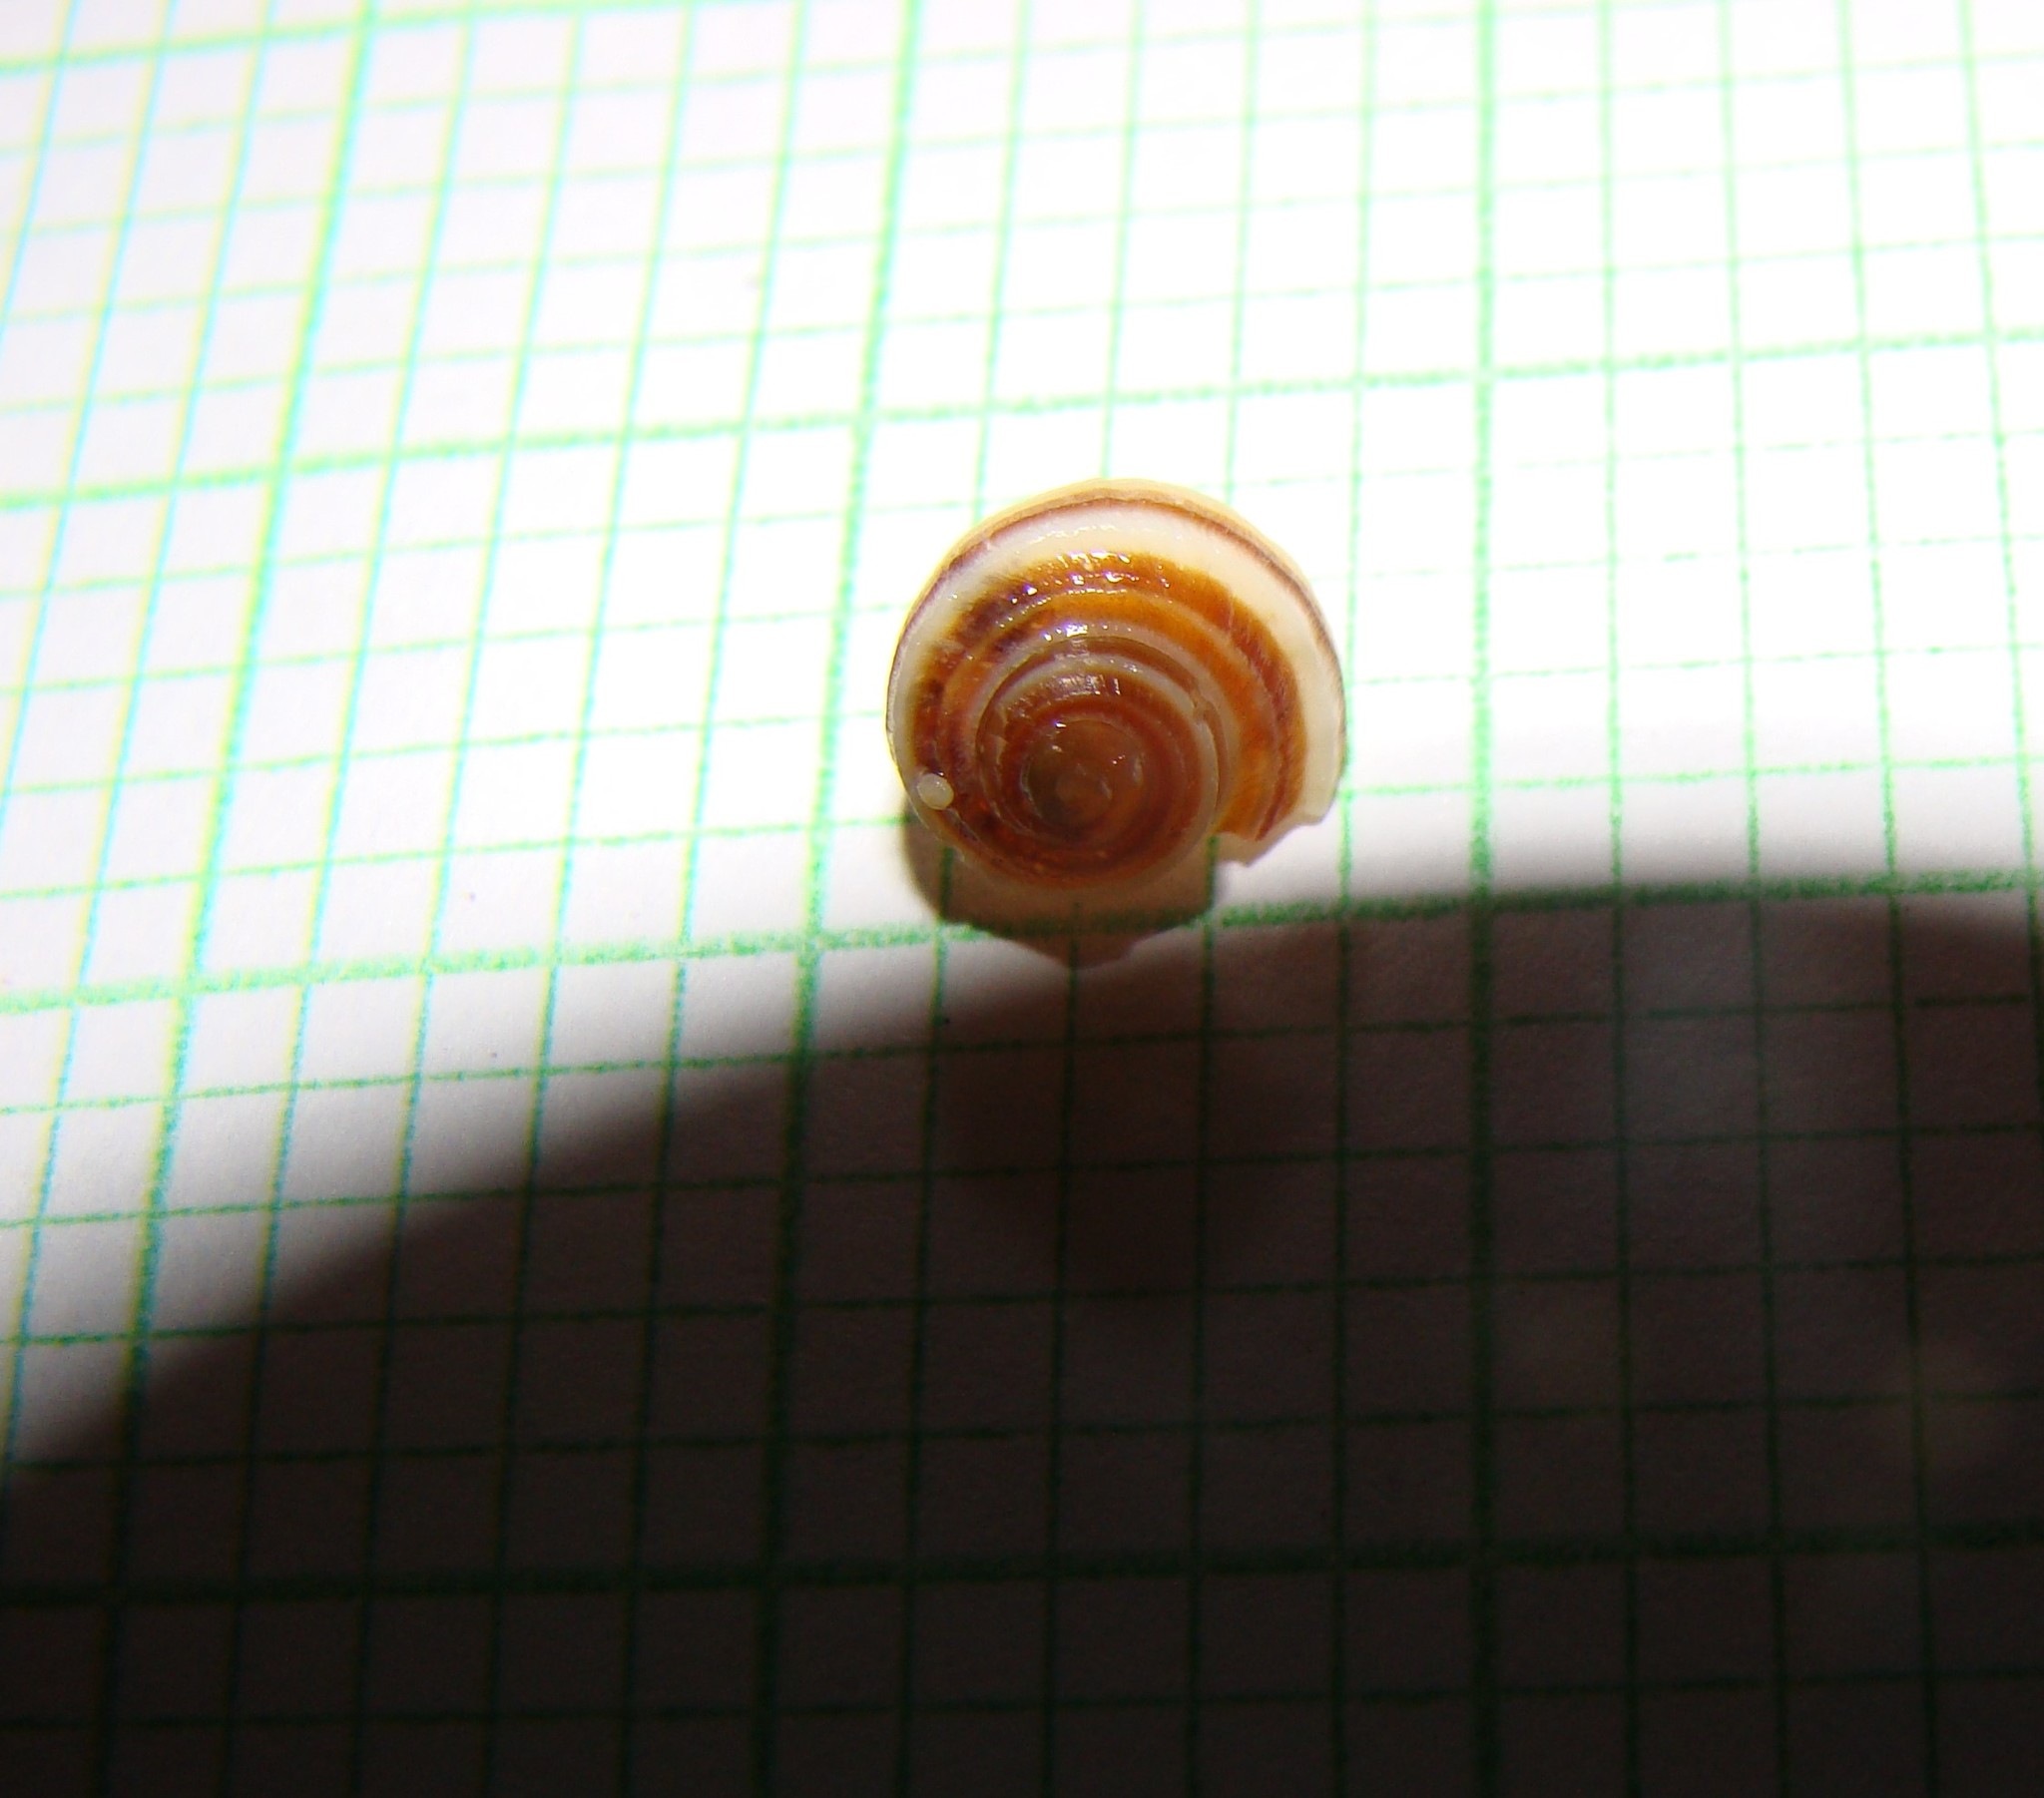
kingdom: Animalia
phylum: Mollusca
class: Gastropoda
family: Amphibolidae
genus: Amphibola
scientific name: Amphibola crenata
